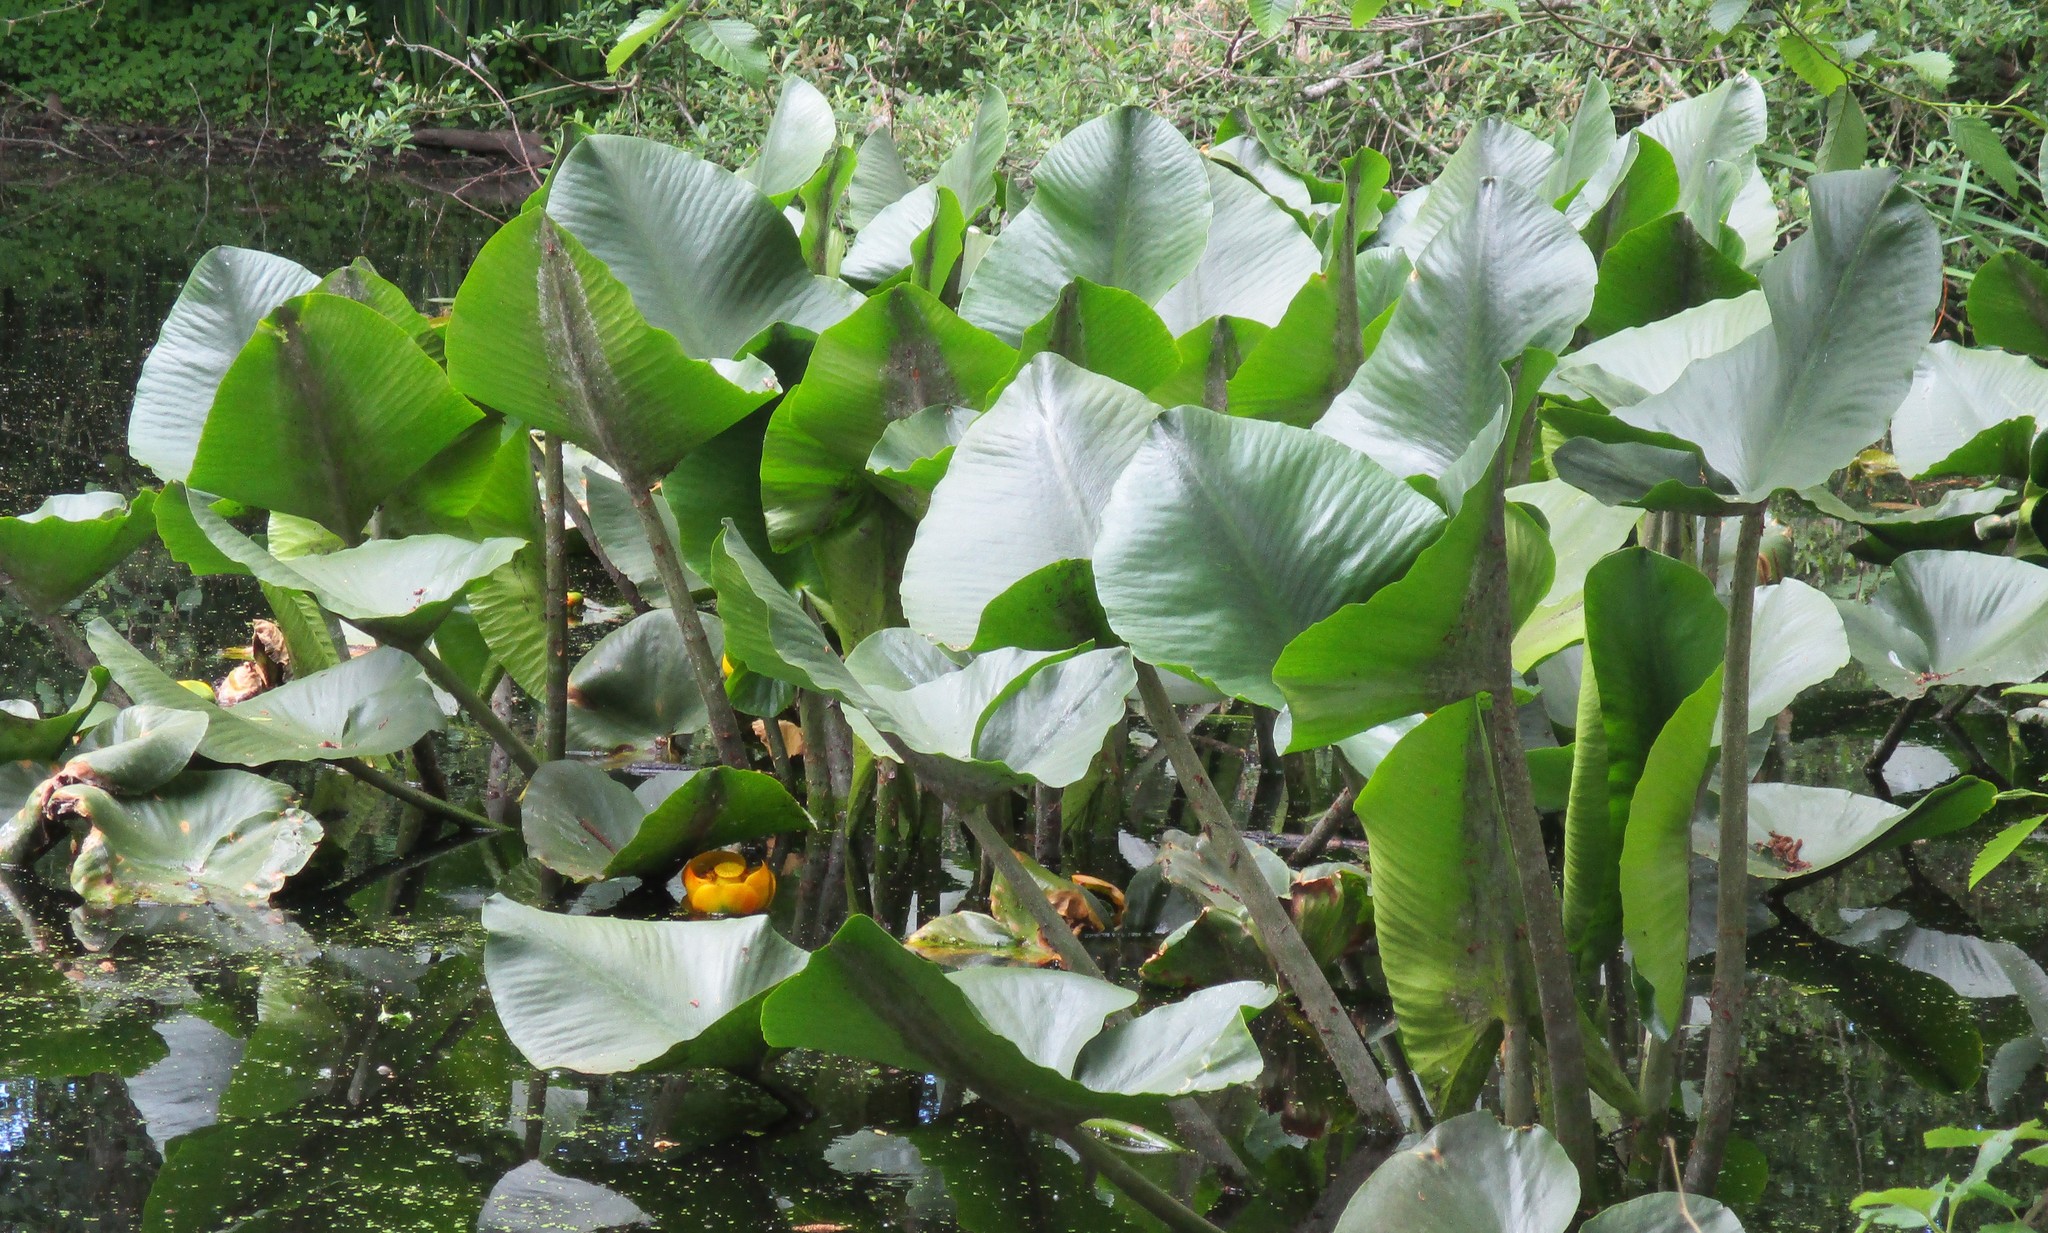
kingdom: Plantae
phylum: Tracheophyta
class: Magnoliopsida
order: Nymphaeales
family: Nymphaeaceae
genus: Nuphar
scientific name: Nuphar polysepala
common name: Rocky mountain cow-lily
